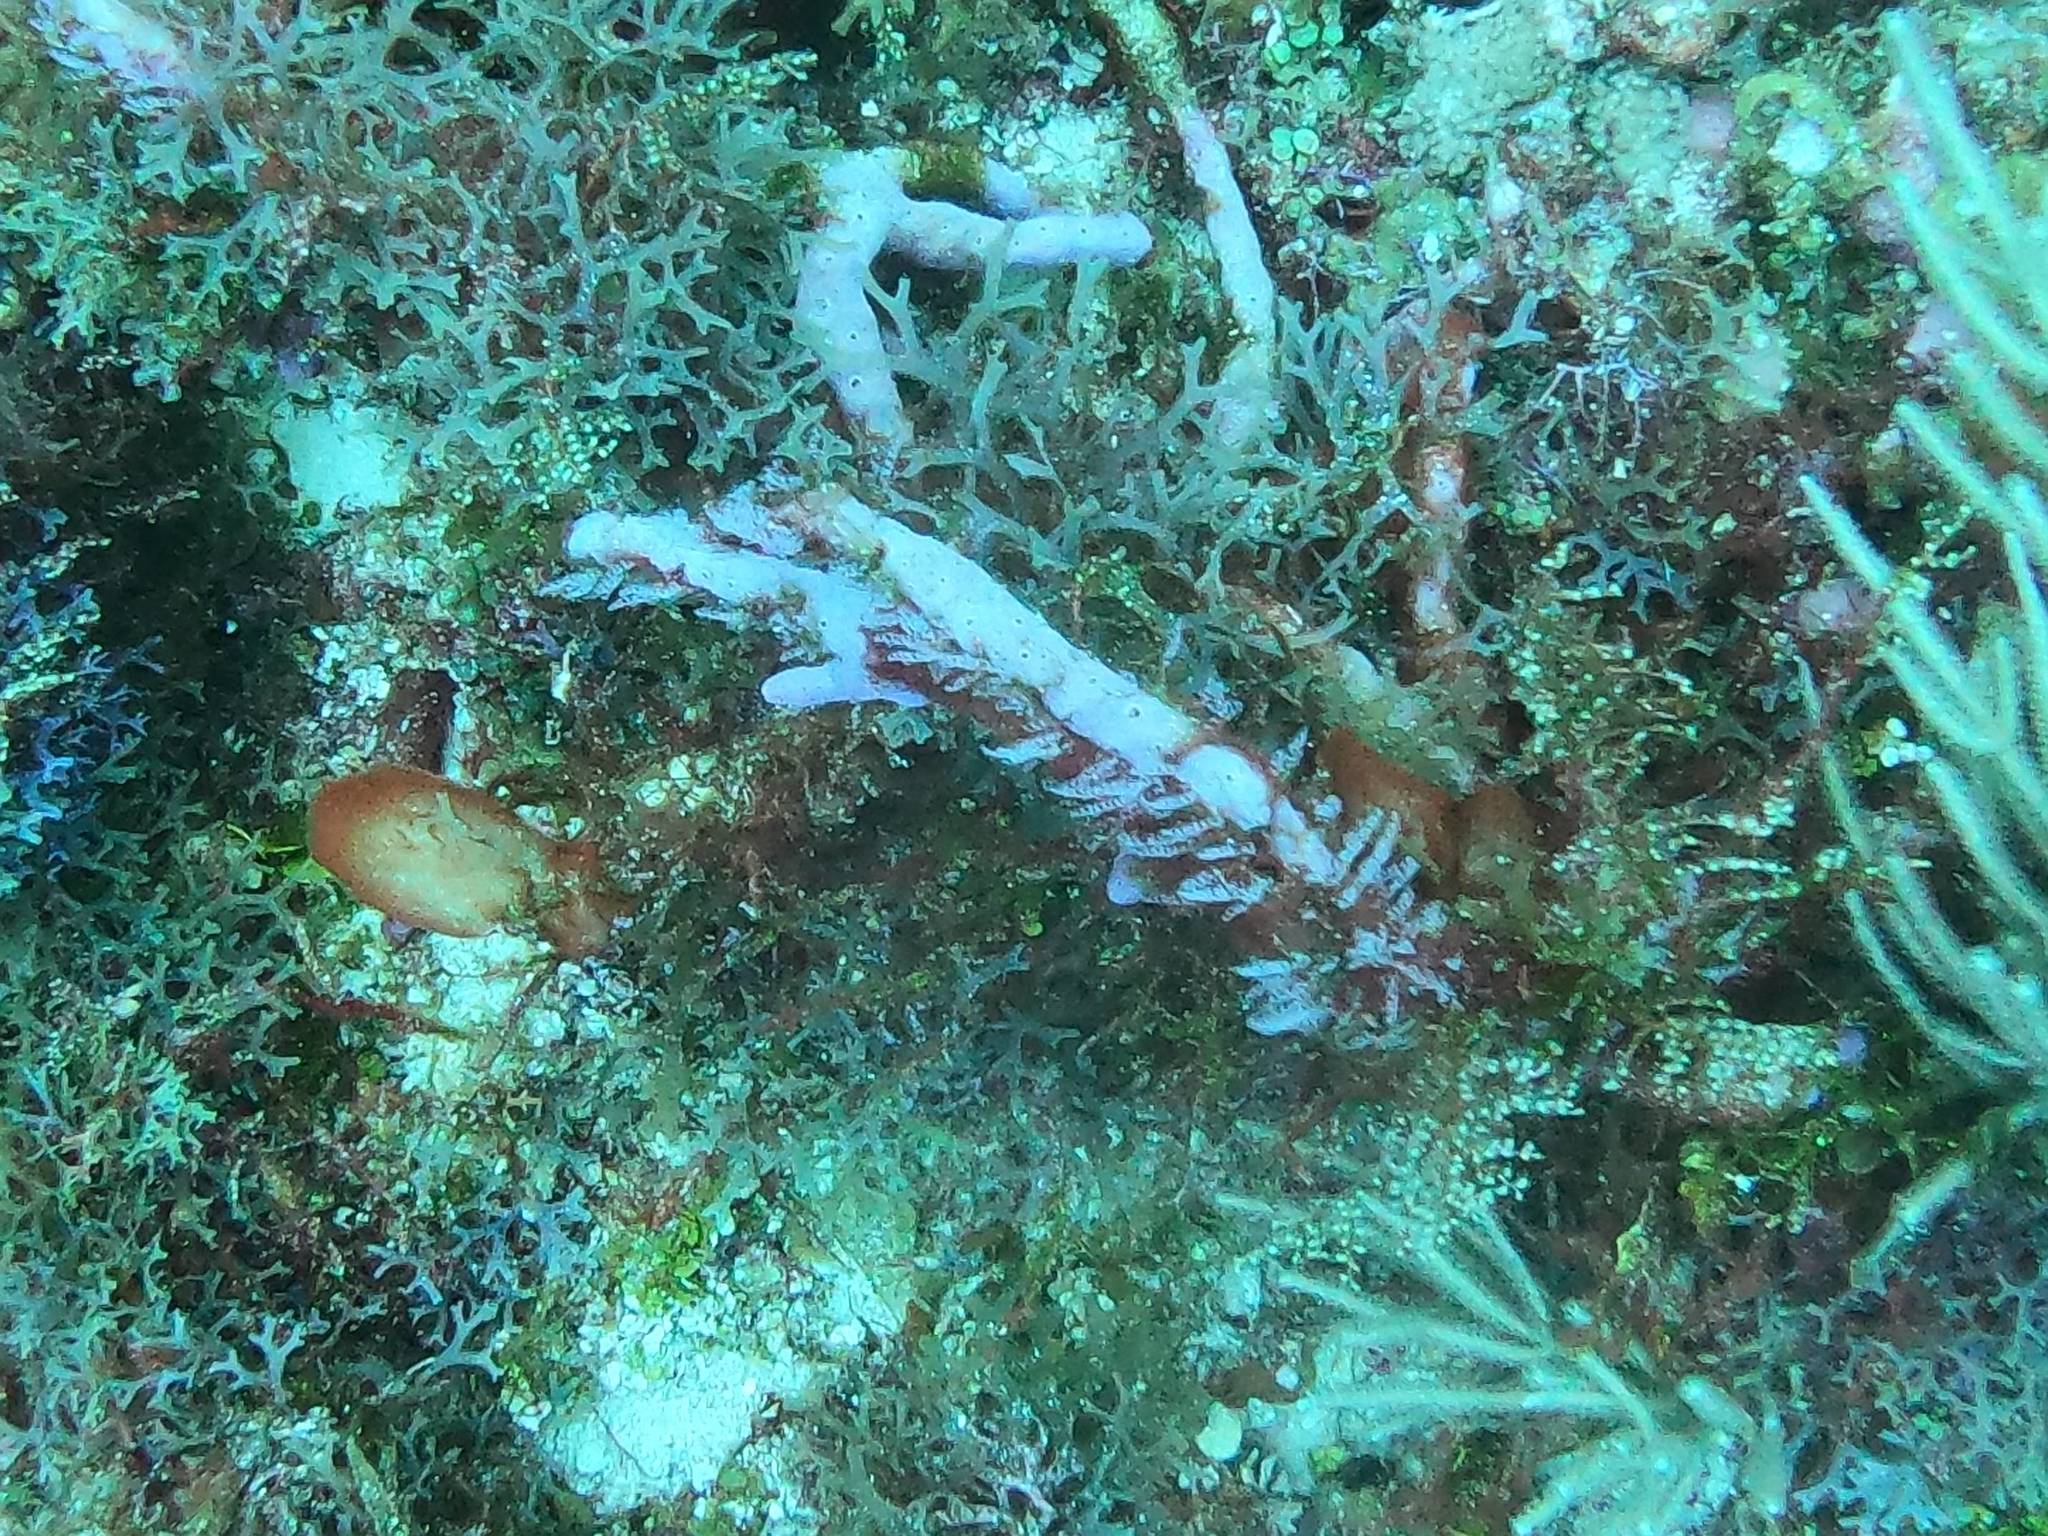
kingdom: Animalia
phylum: Porifera
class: Demospongiae
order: Verongiida
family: Aplysinidae
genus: Aplysina
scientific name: Aplysina cauliformis
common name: Branching candle sponge
